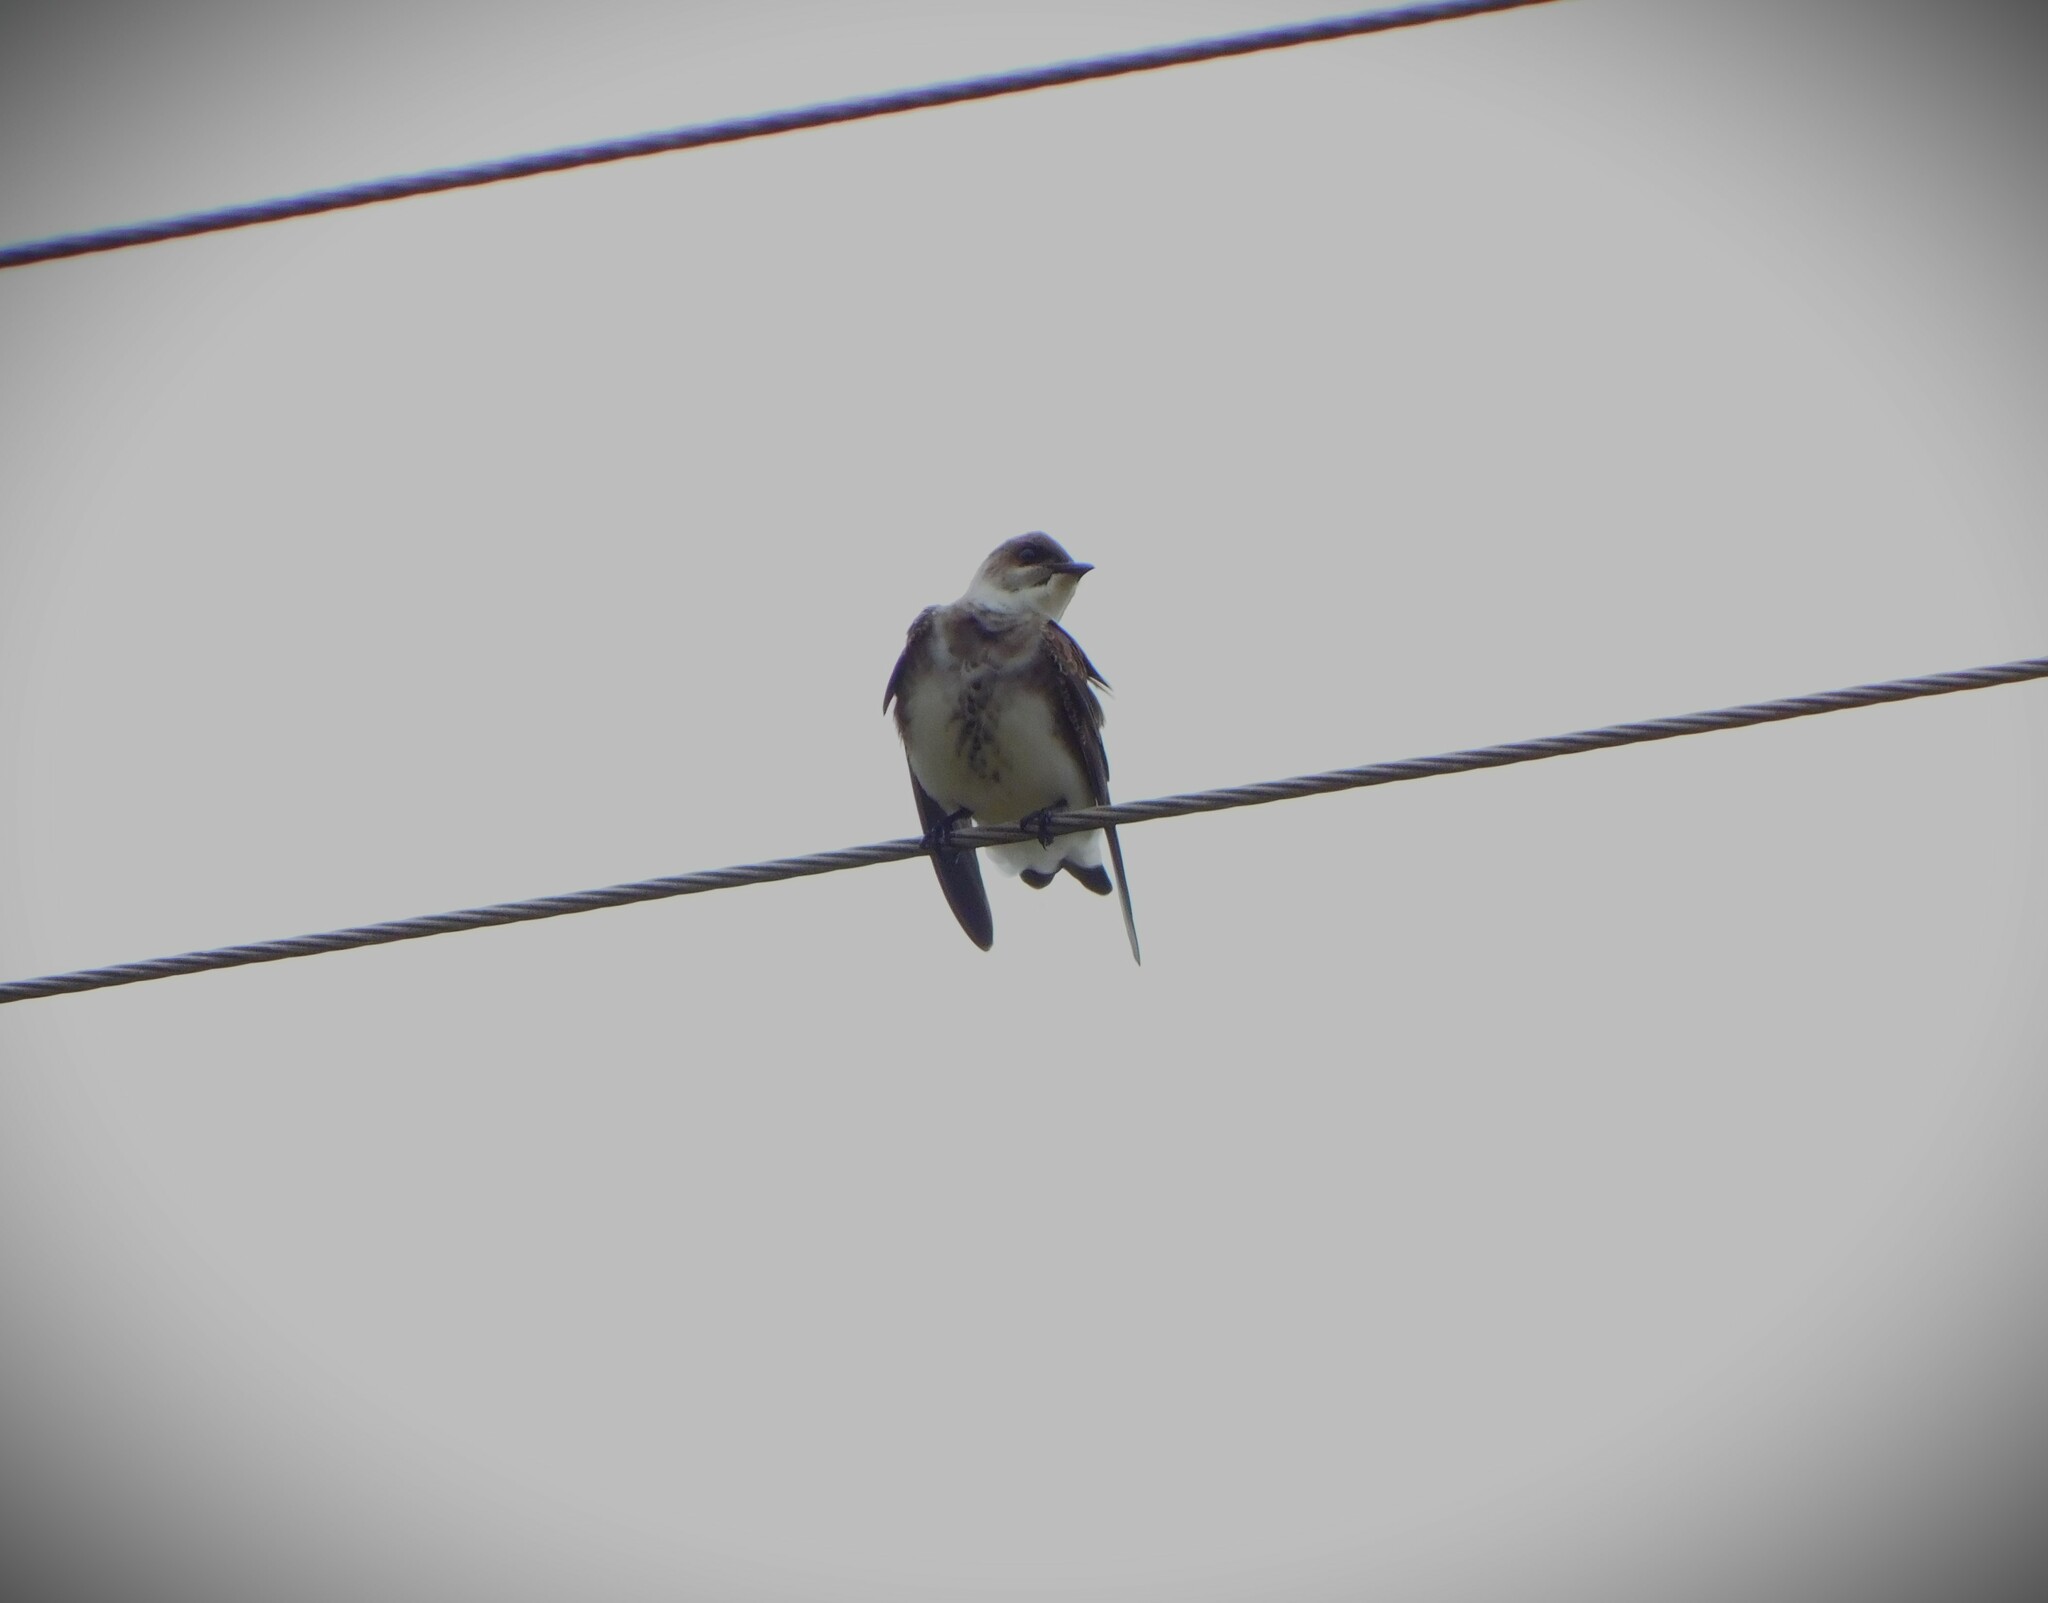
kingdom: Animalia
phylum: Chordata
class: Aves
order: Passeriformes
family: Hirundinidae
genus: Progne
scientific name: Progne tapera
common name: Brown-chested martin
